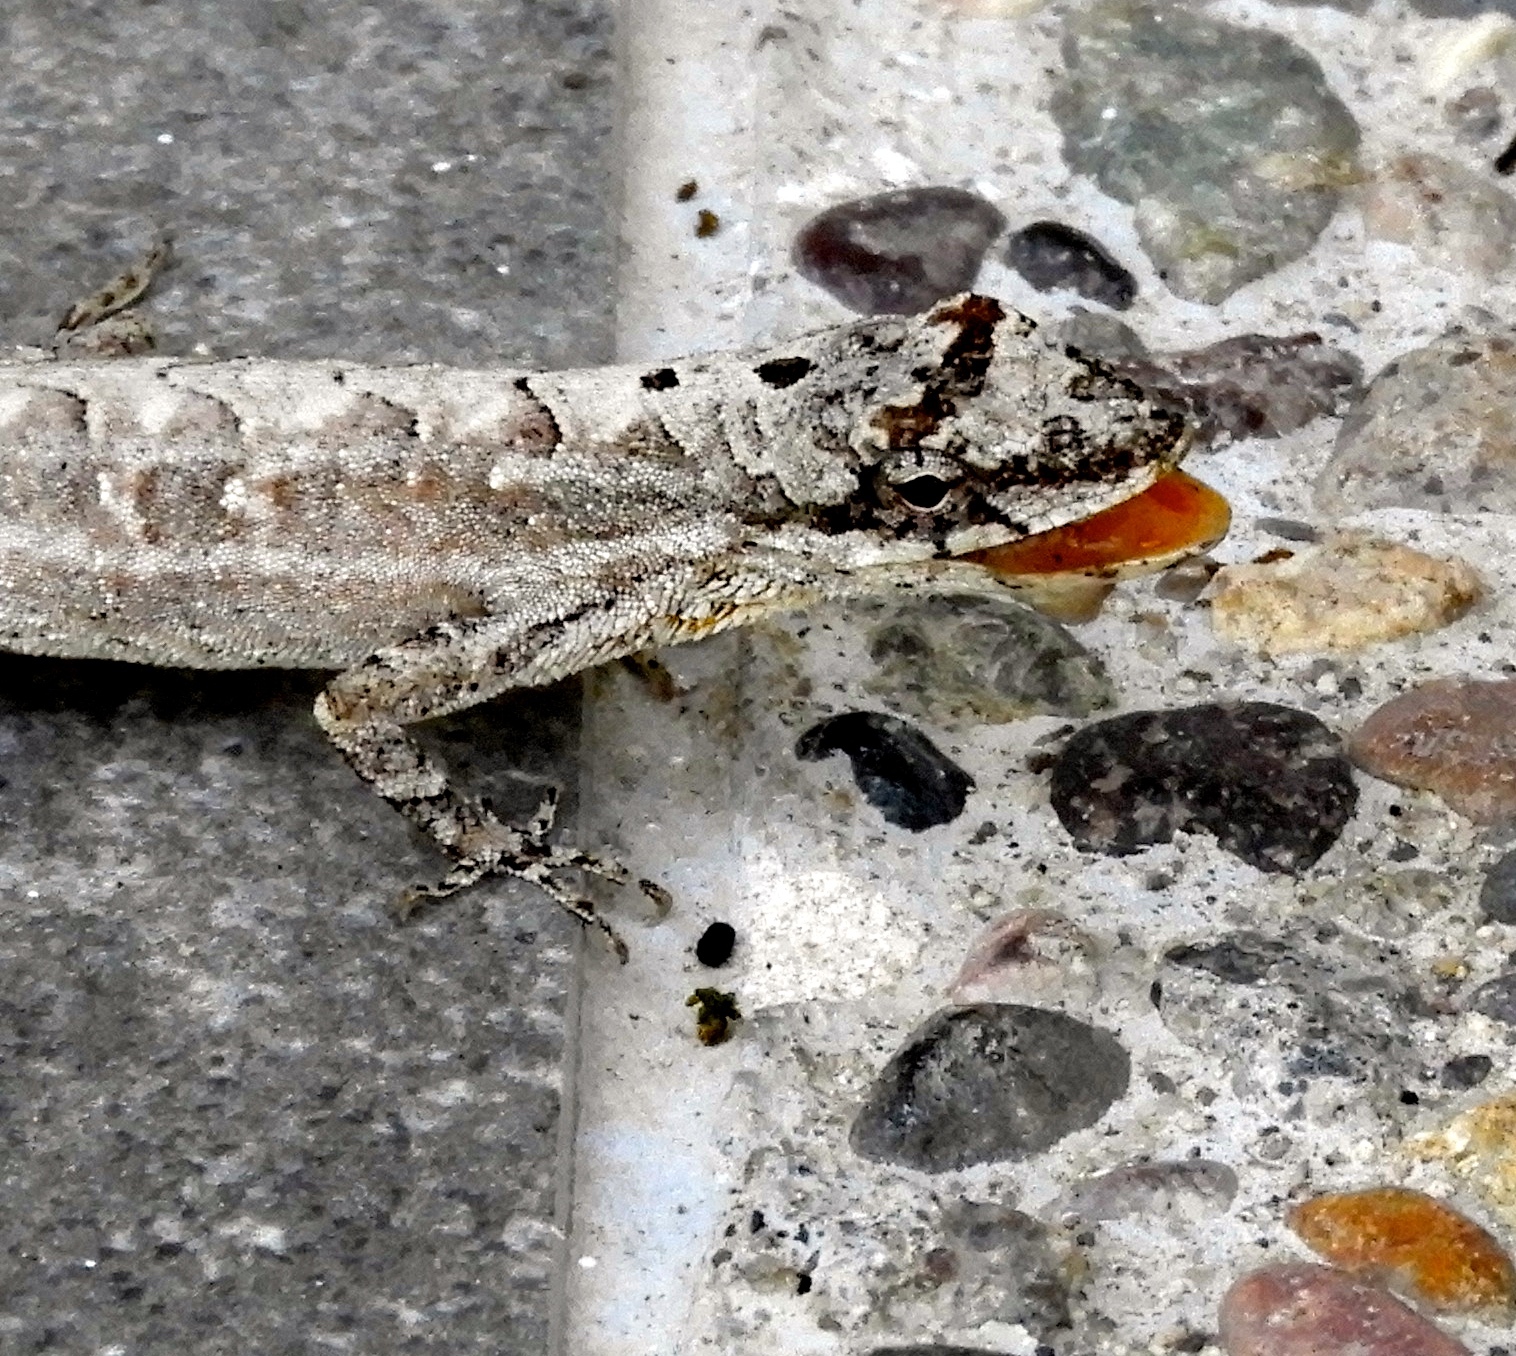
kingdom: Animalia
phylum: Chordata
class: Squamata
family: Dactyloidae
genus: Anolis
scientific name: Anolis nebulosus
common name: Clouded anole
